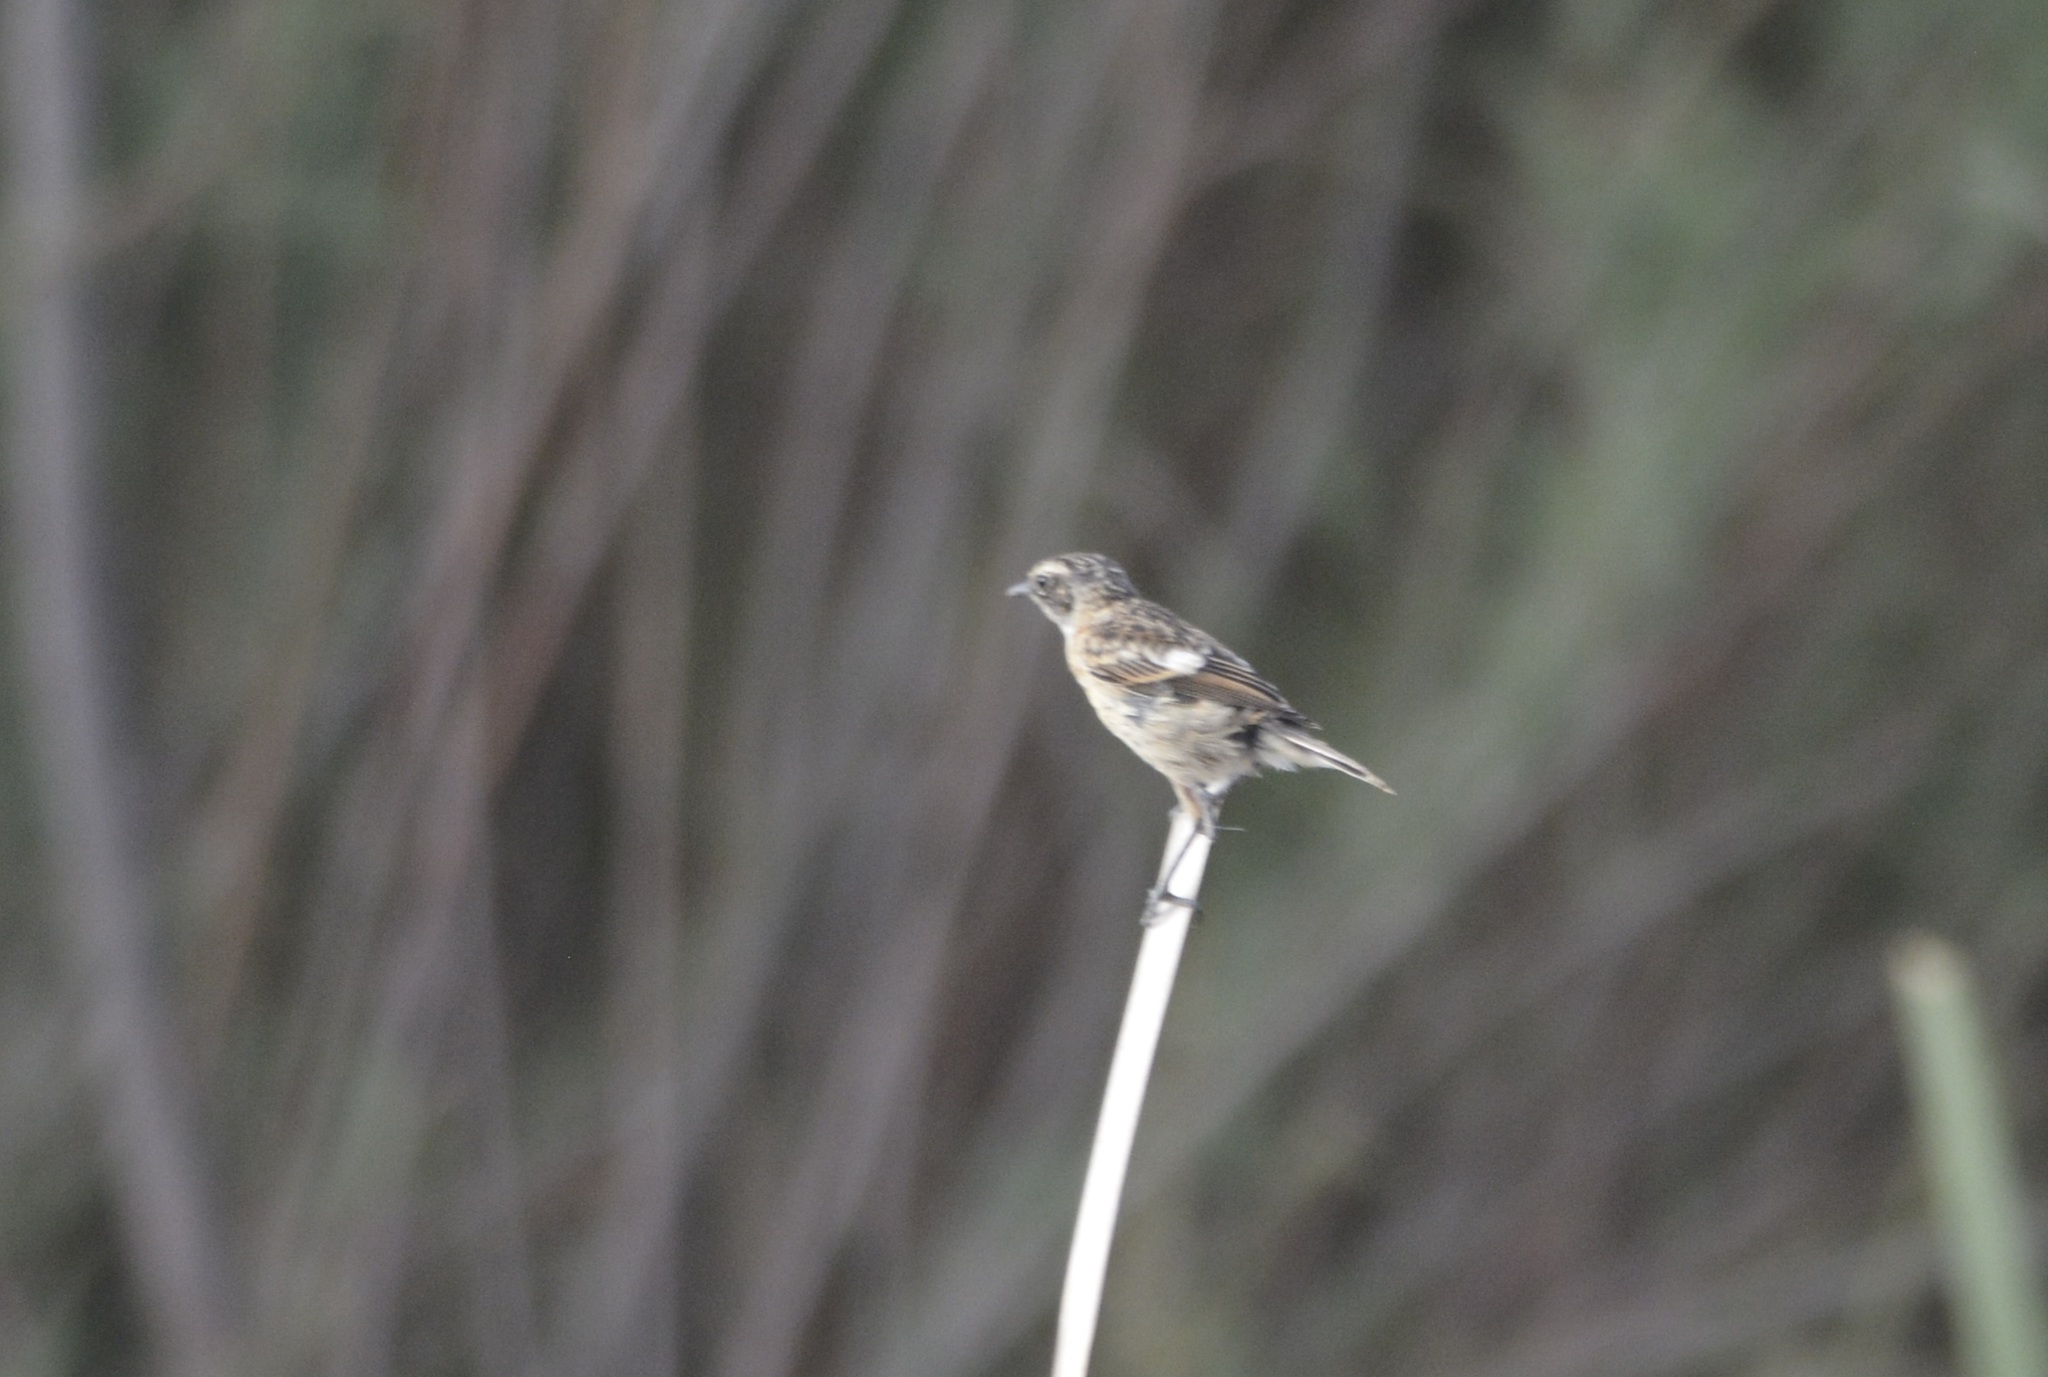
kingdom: Animalia
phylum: Chordata
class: Aves
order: Passeriformes
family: Muscicapidae
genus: Saxicola
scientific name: Saxicola rubicola
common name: European stonechat
